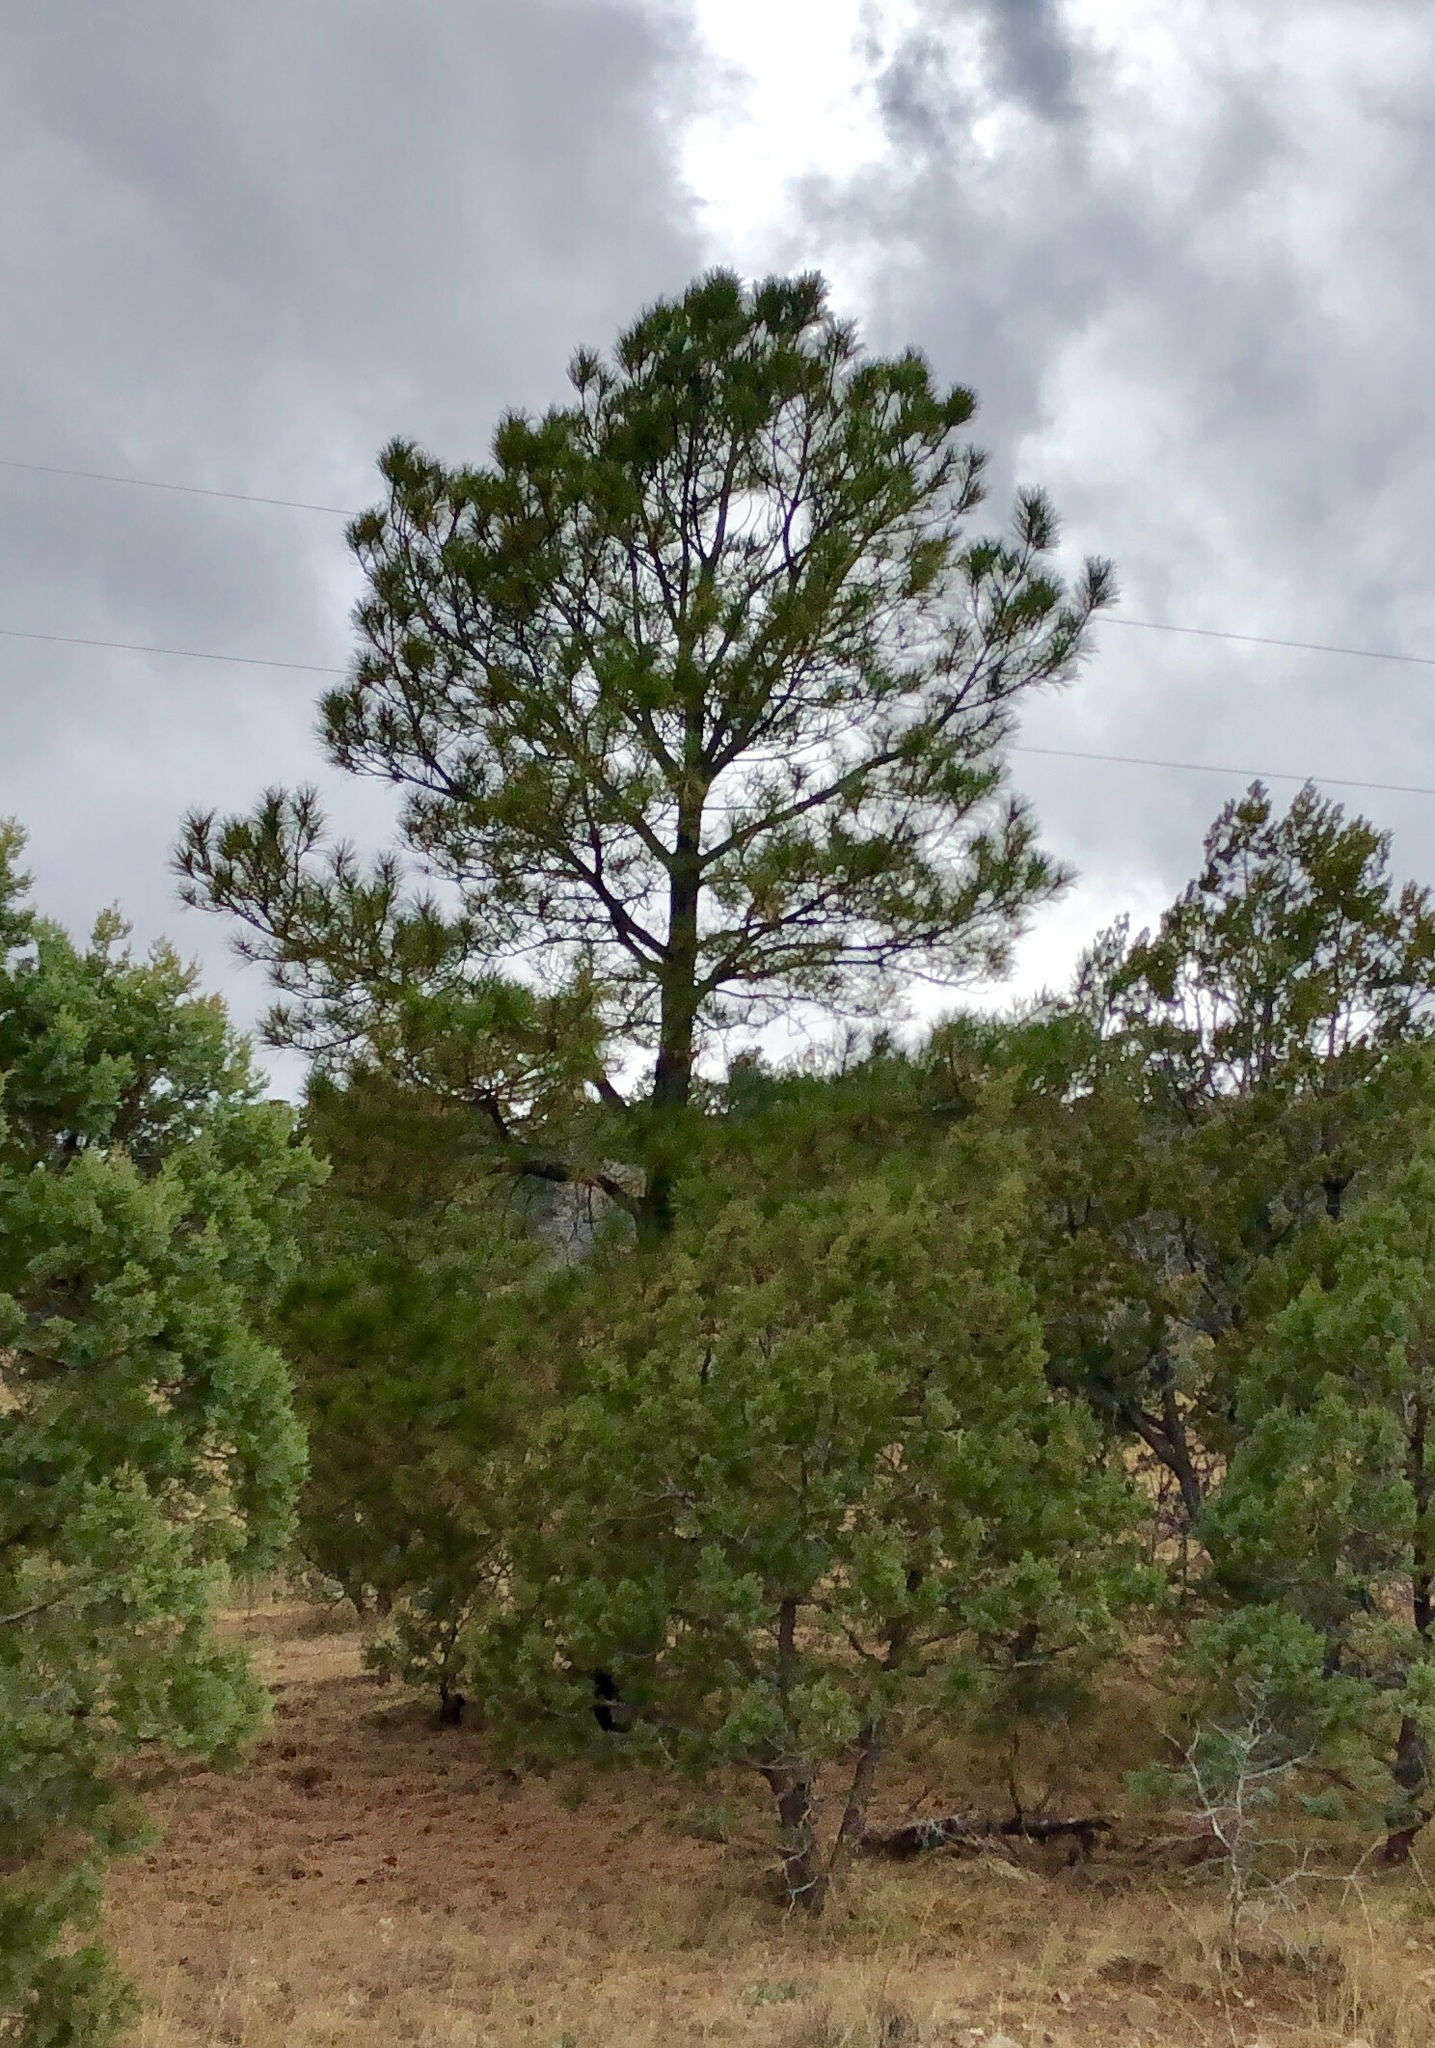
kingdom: Plantae
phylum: Tracheophyta
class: Pinopsida
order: Pinales
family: Pinaceae
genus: Pinus
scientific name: Pinus ponderosa
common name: Western yellow-pine
